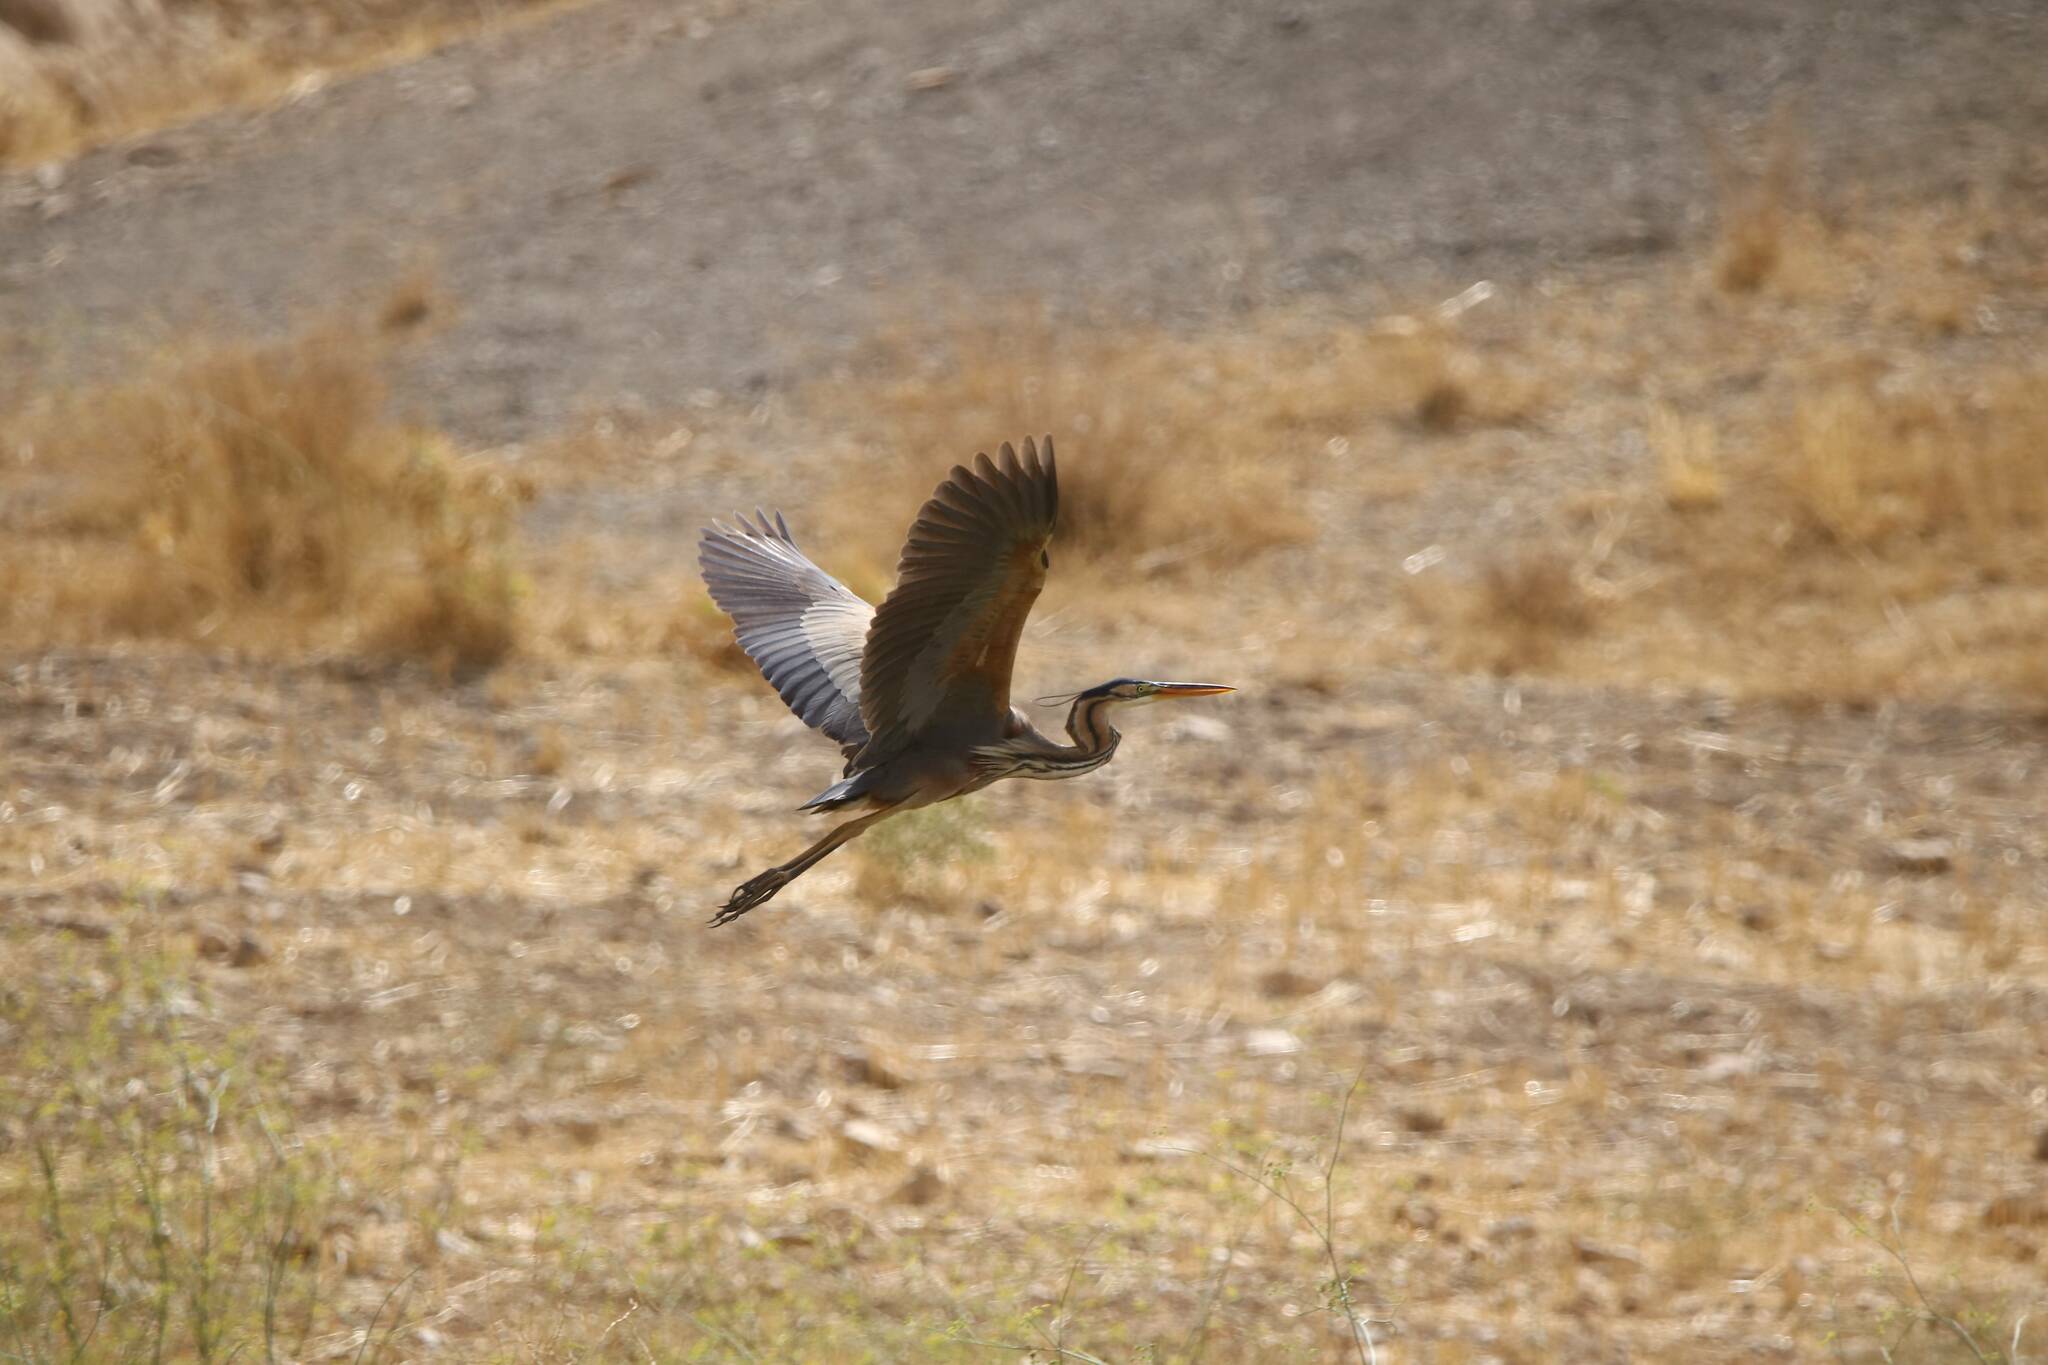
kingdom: Animalia
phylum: Chordata
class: Aves
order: Pelecaniformes
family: Ardeidae
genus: Ardea
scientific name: Ardea purpurea
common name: Purple heron
